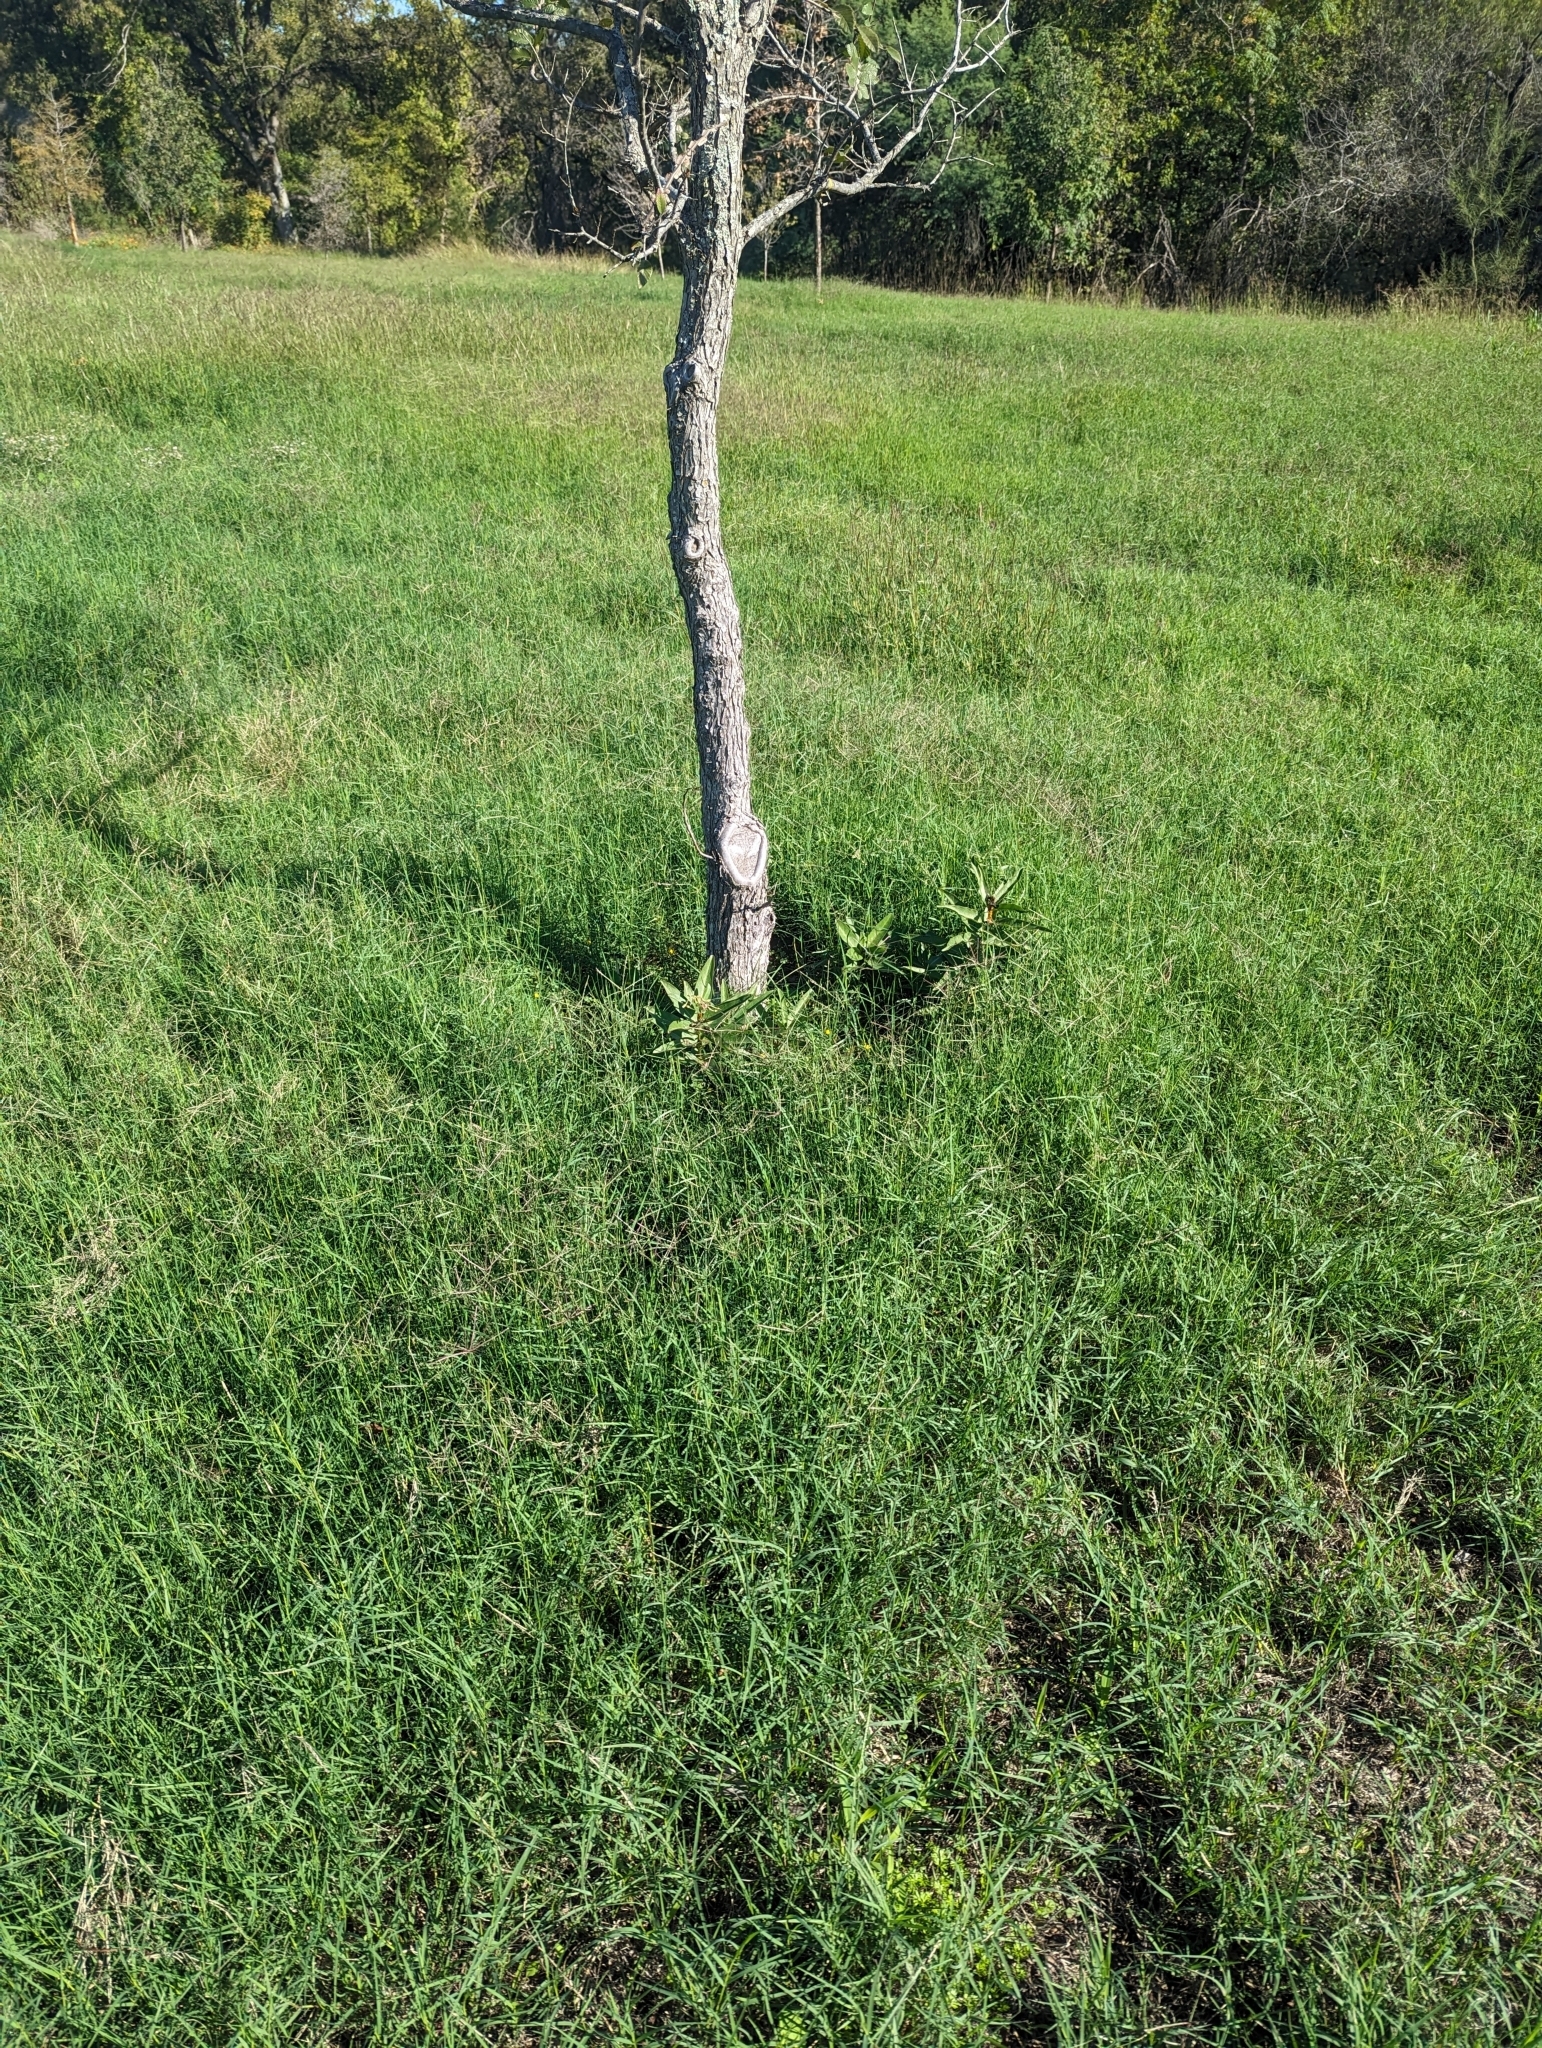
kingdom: Plantae
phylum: Tracheophyta
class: Magnoliopsida
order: Gentianales
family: Apocynaceae
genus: Asclepias
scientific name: Asclepias viridis
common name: Antelope-horns
